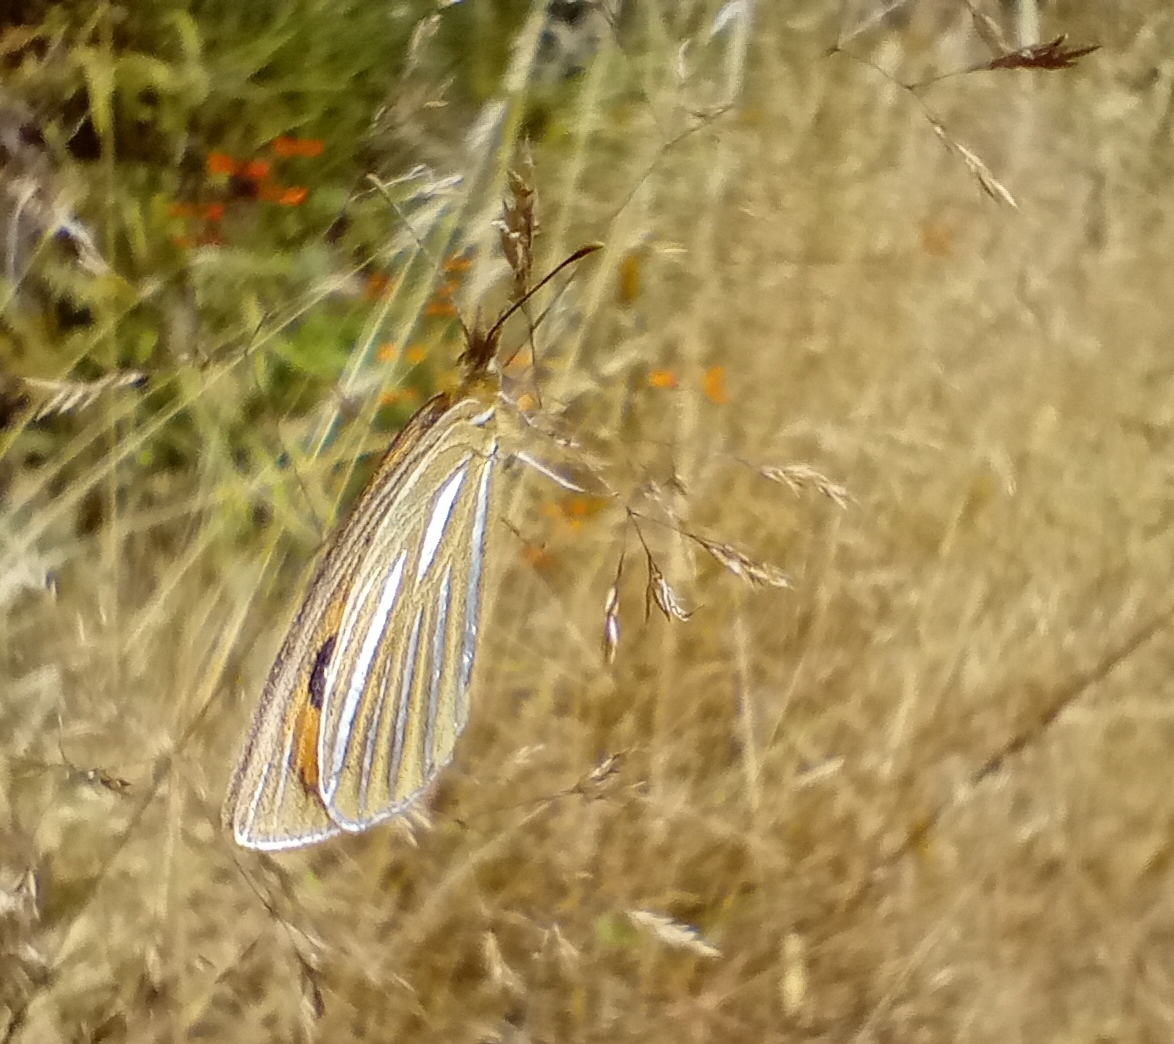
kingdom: Animalia
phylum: Arthropoda
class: Insecta
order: Lepidoptera
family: Nymphalidae
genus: Argyrophenga
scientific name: Argyrophenga antipodum
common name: Common tussock butterfly
